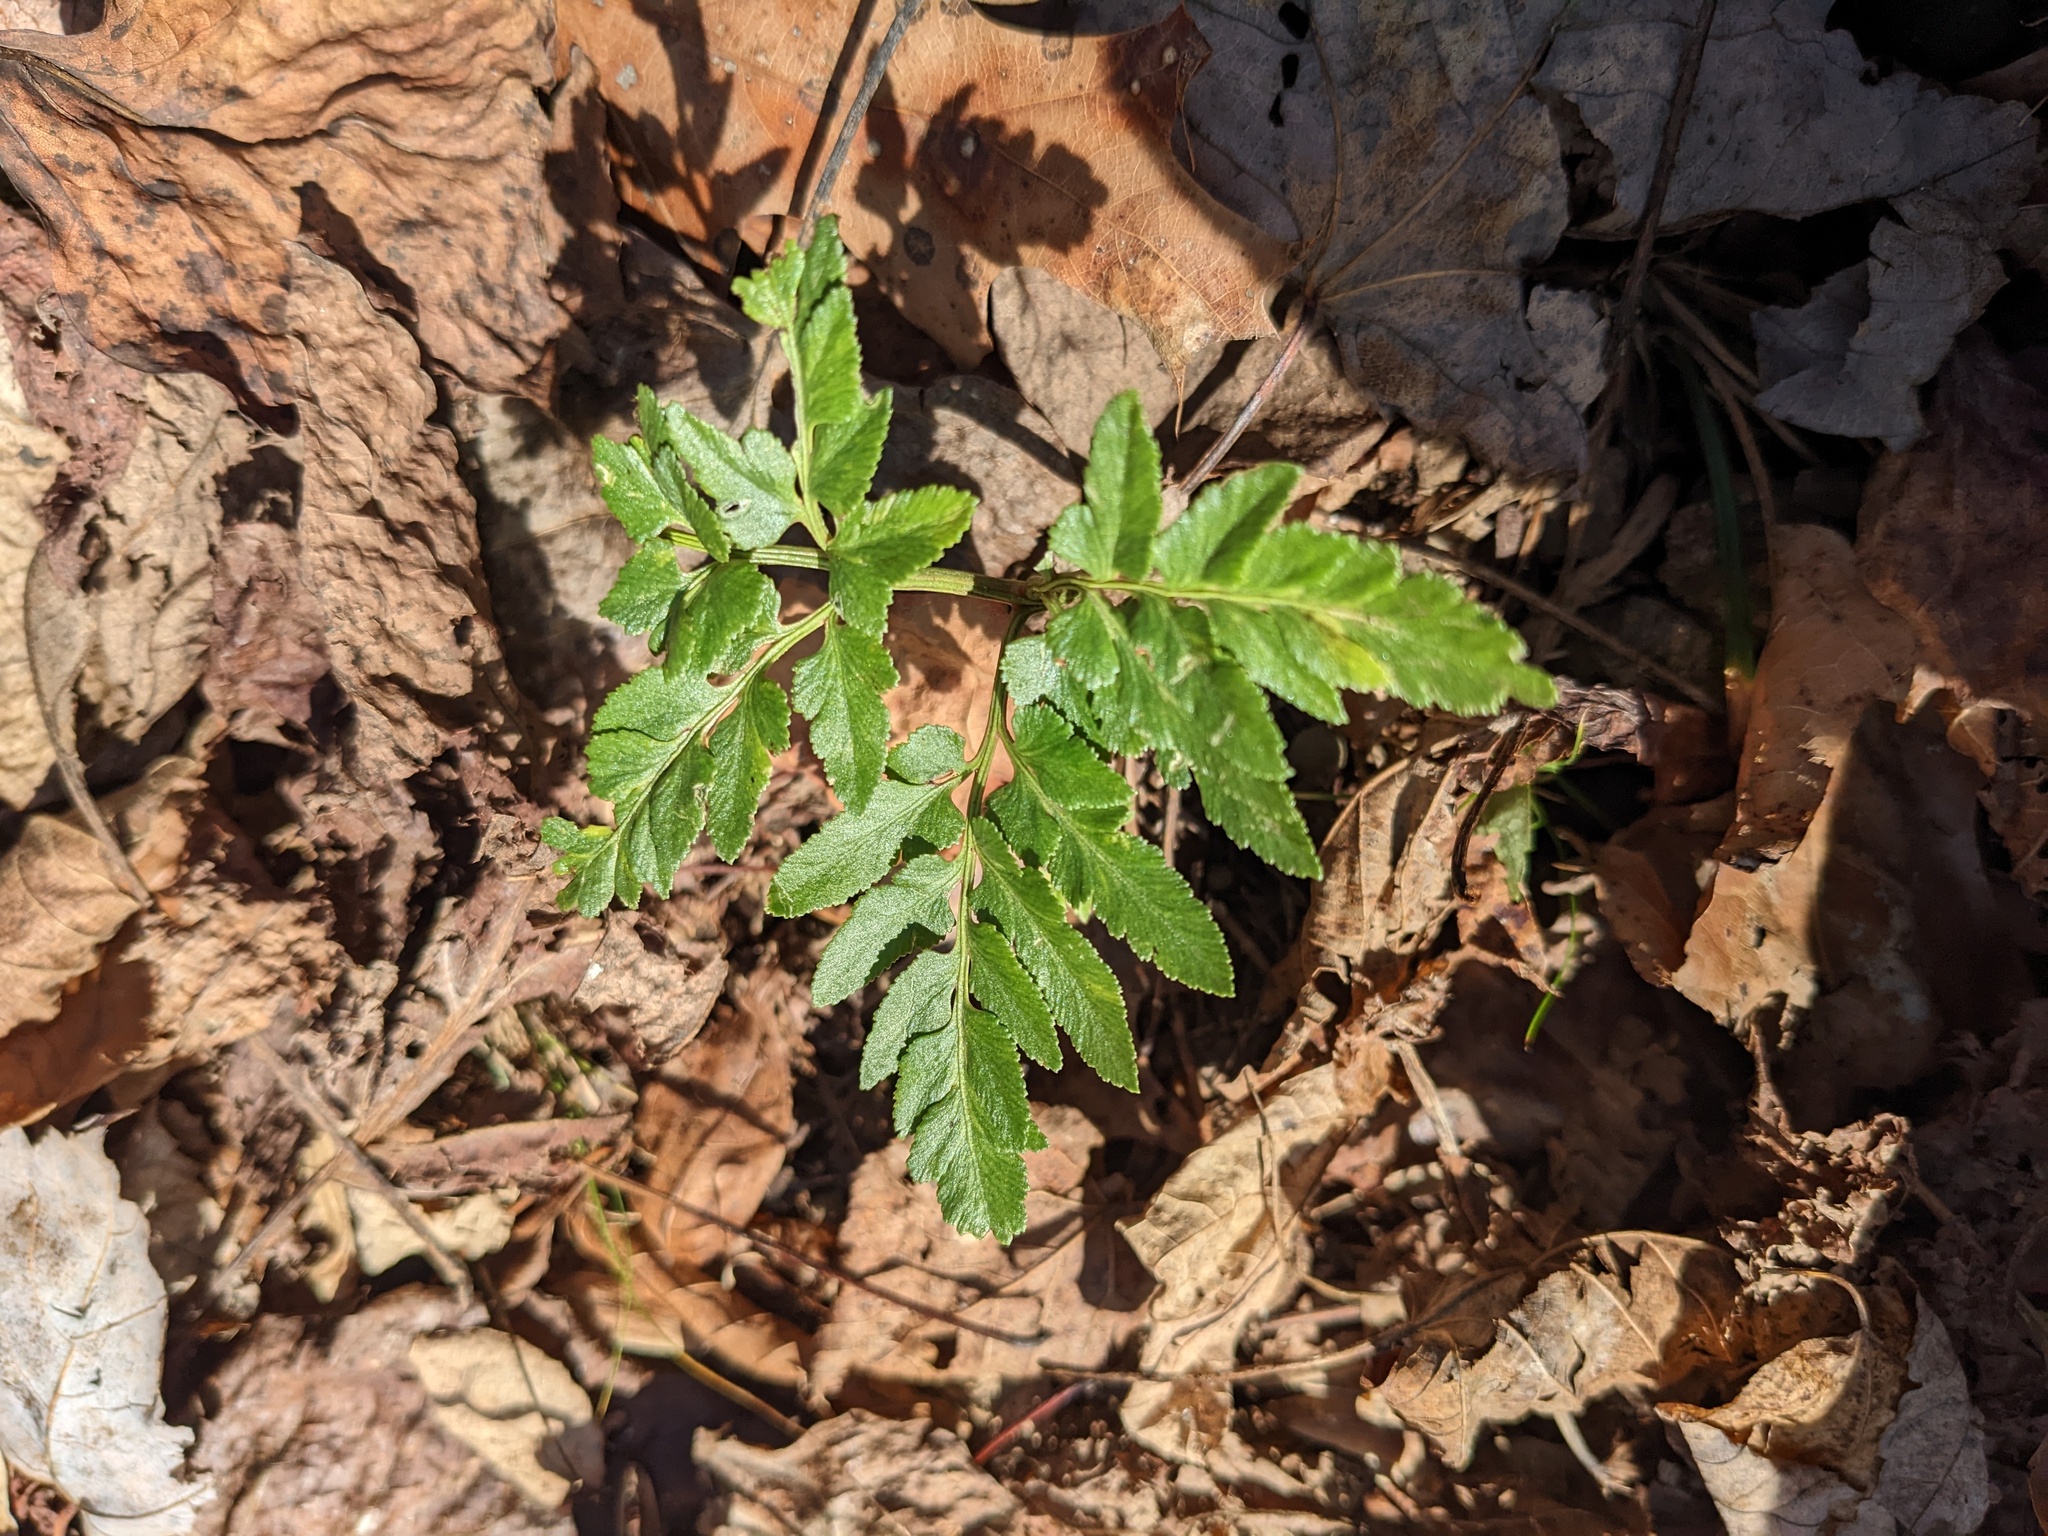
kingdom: Plantae
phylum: Tracheophyta
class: Polypodiopsida
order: Ophioglossales
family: Ophioglossaceae
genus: Sceptridium
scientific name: Sceptridium dissectum
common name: Cut-leaved grapefern
